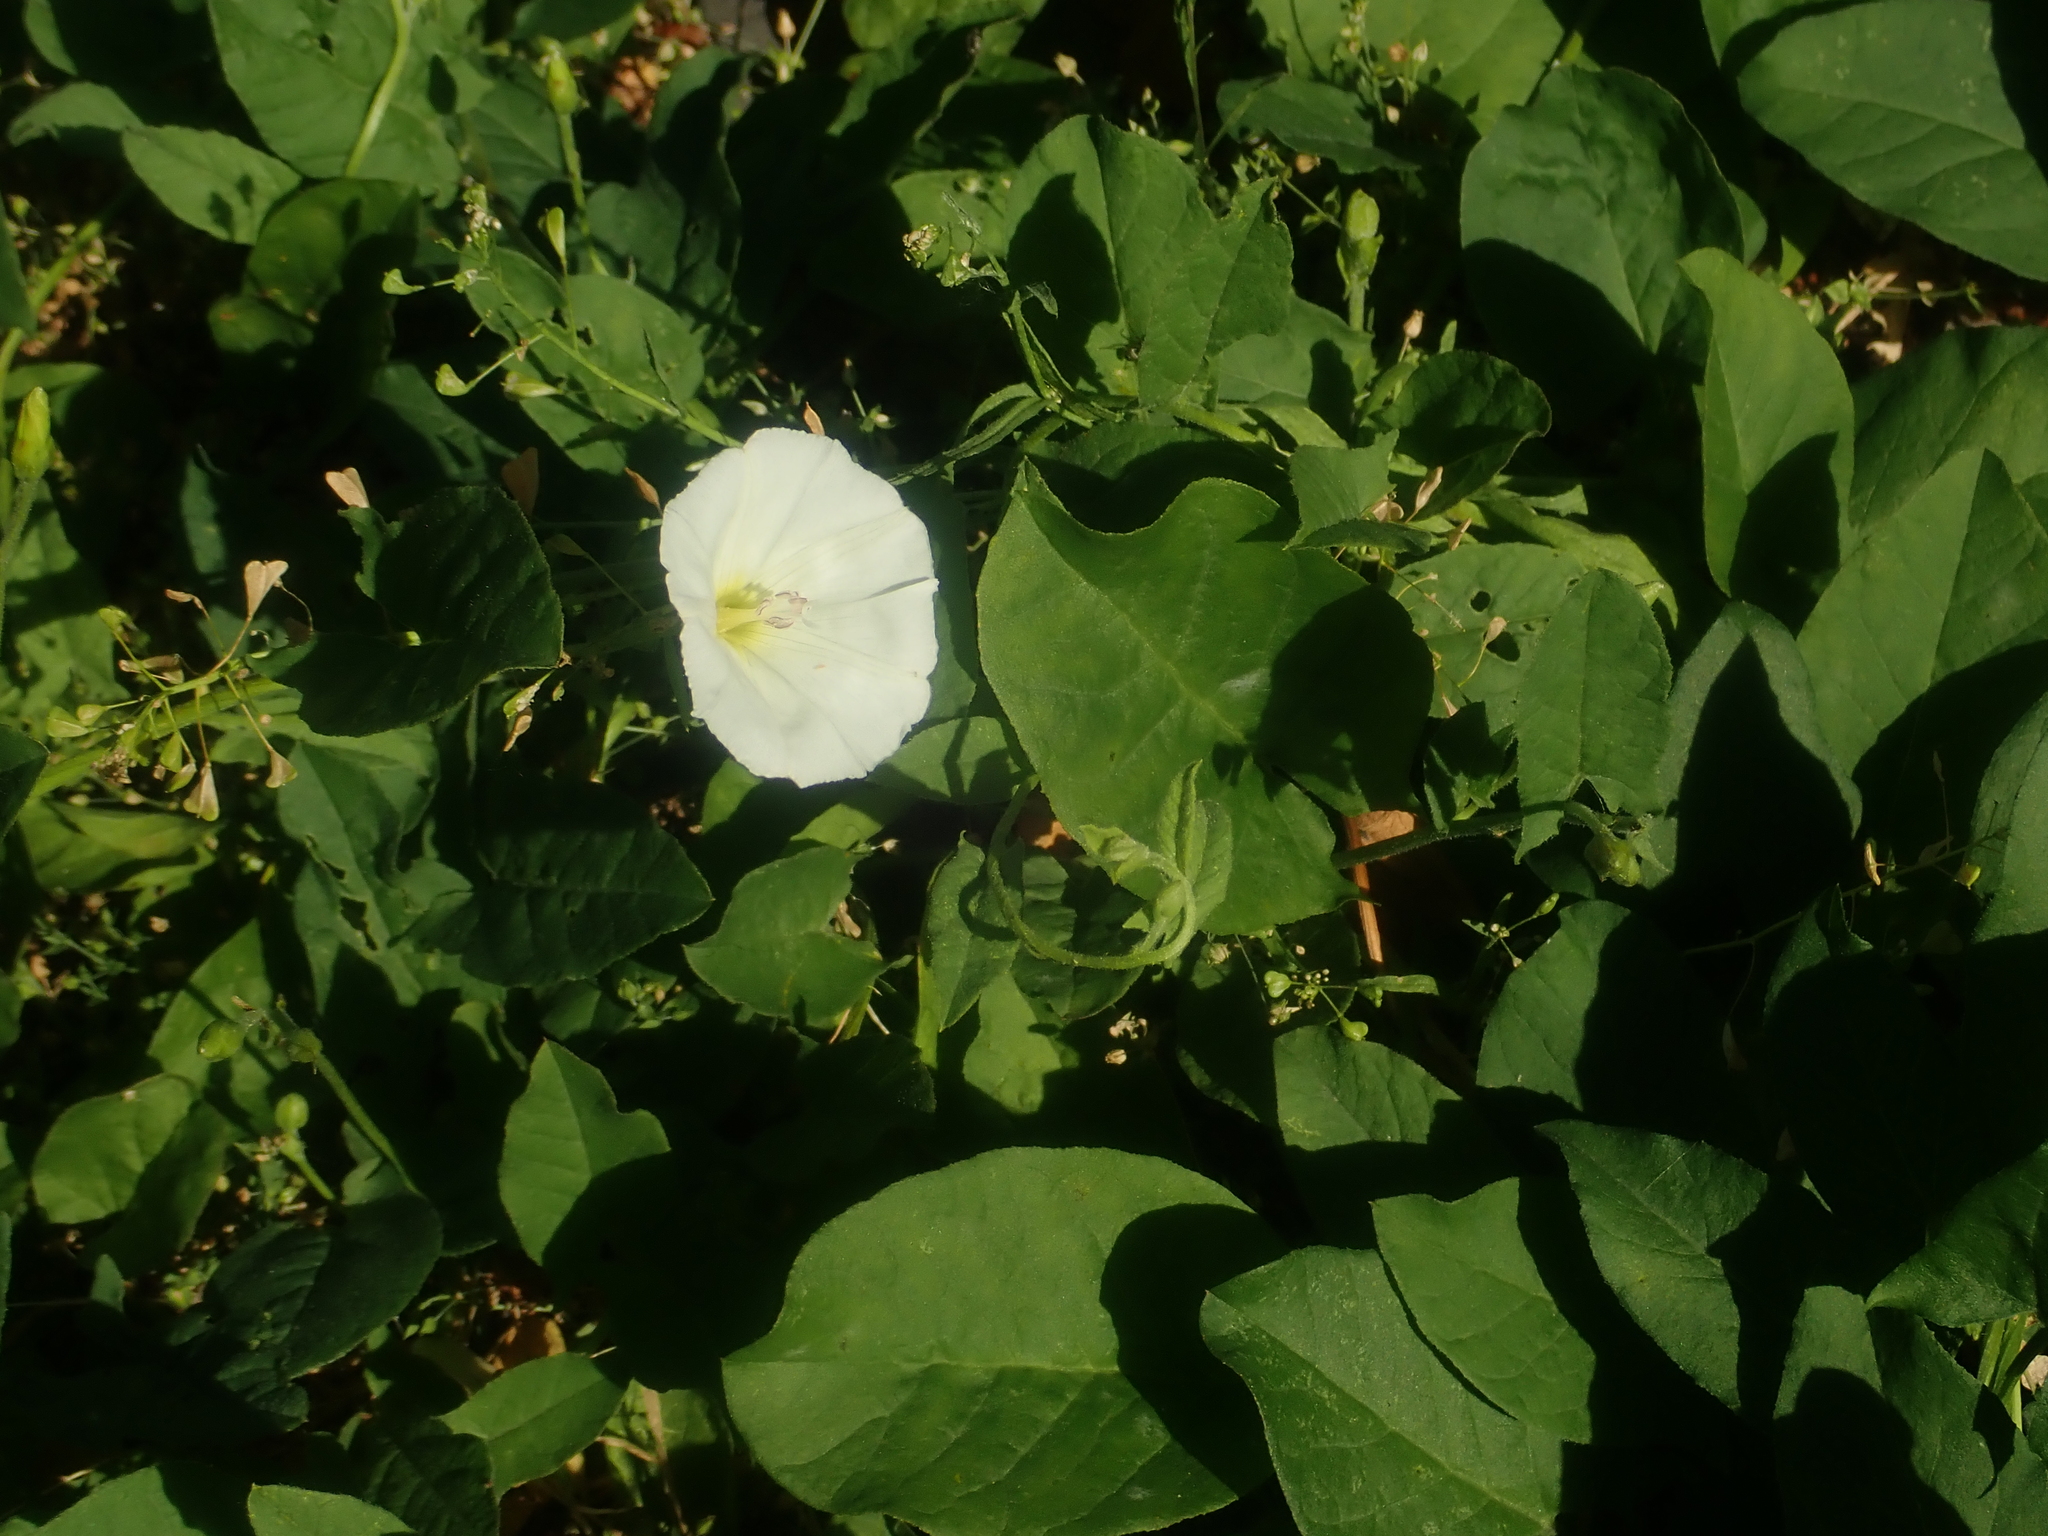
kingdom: Plantae
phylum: Tracheophyta
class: Magnoliopsida
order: Solanales
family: Convolvulaceae
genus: Convolvulus
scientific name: Convolvulus arvensis
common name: Field bindweed
